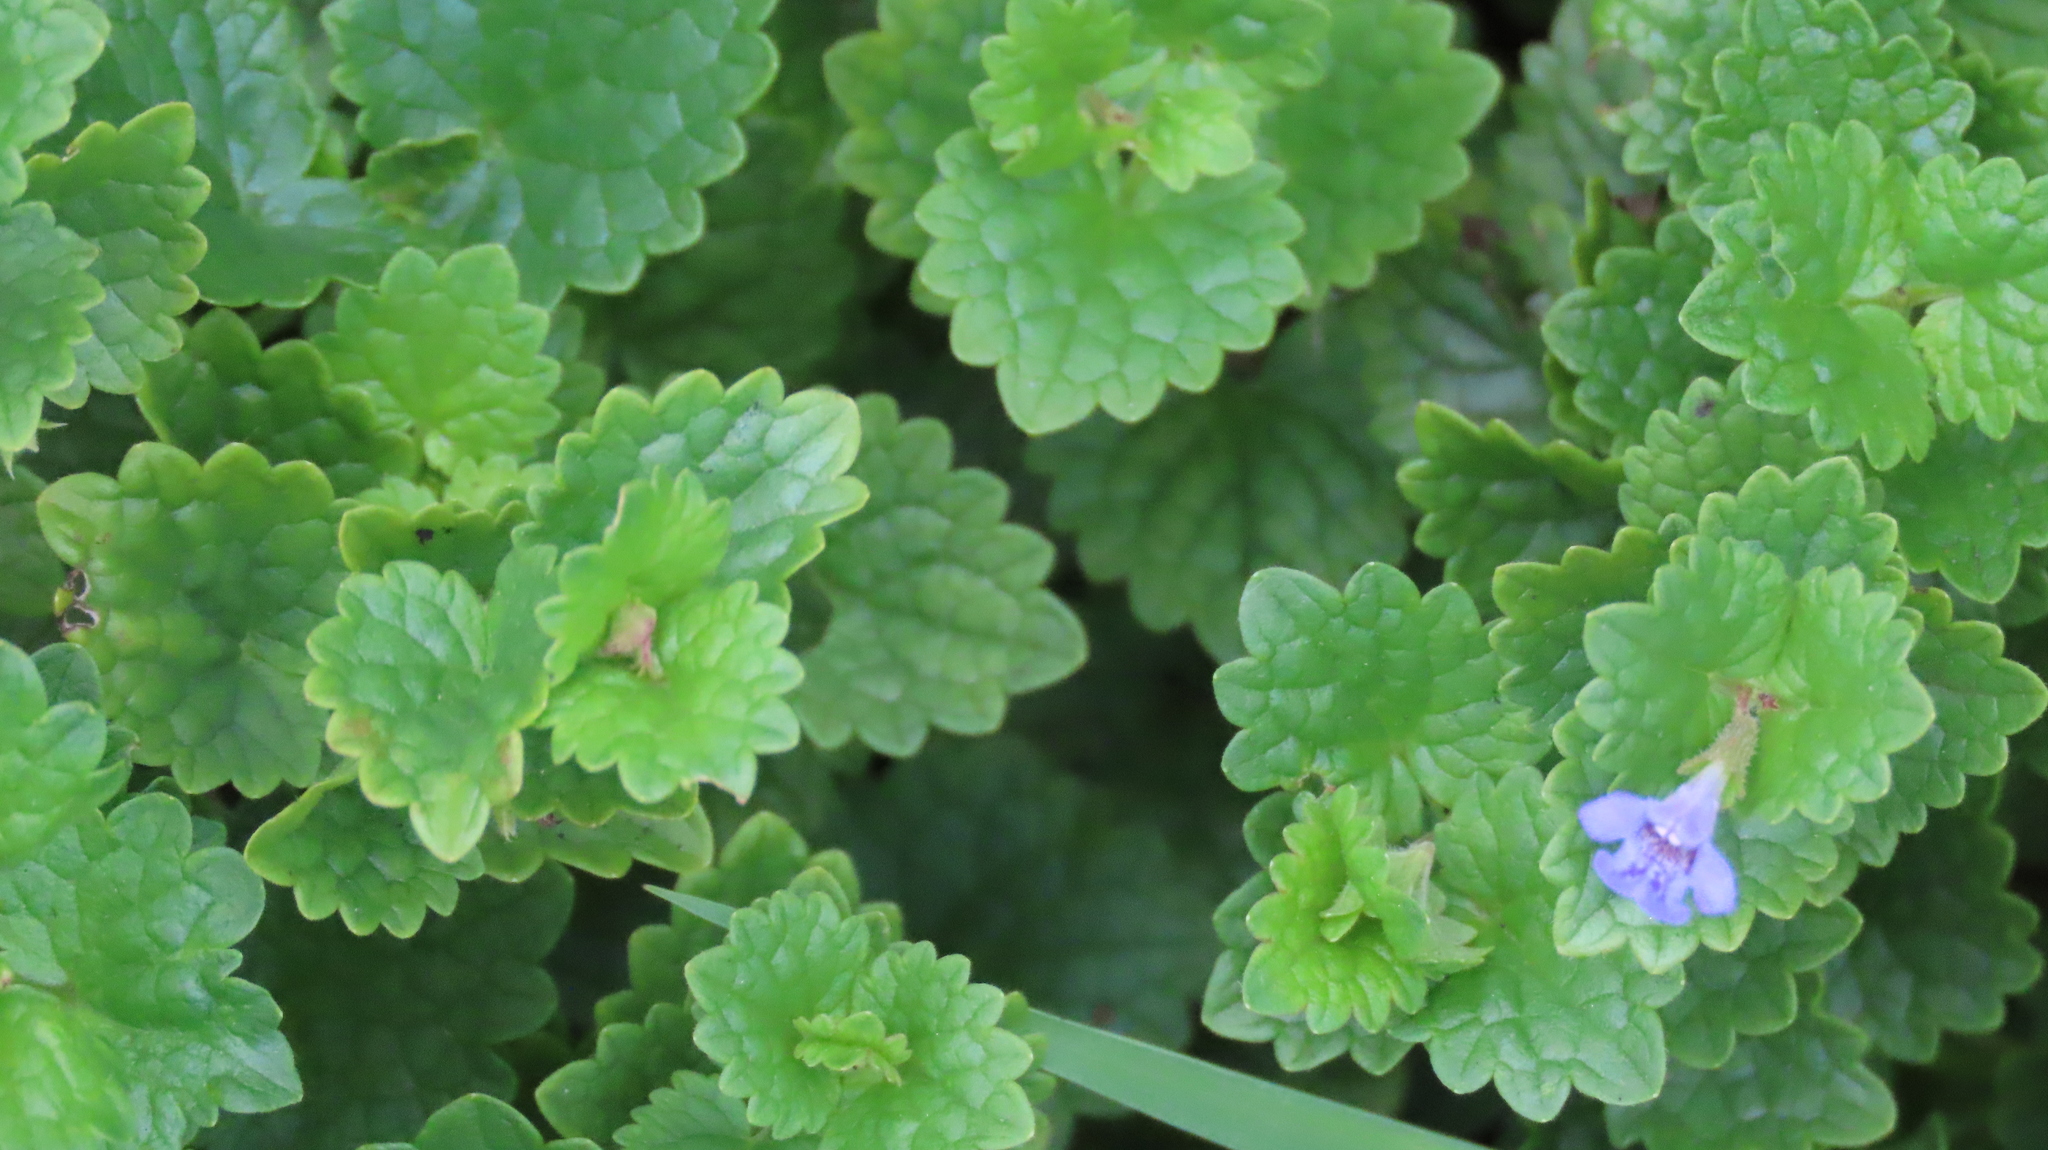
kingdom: Plantae
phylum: Tracheophyta
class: Magnoliopsida
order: Lamiales
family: Lamiaceae
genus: Glechoma
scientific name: Glechoma hederacea
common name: Ground ivy
